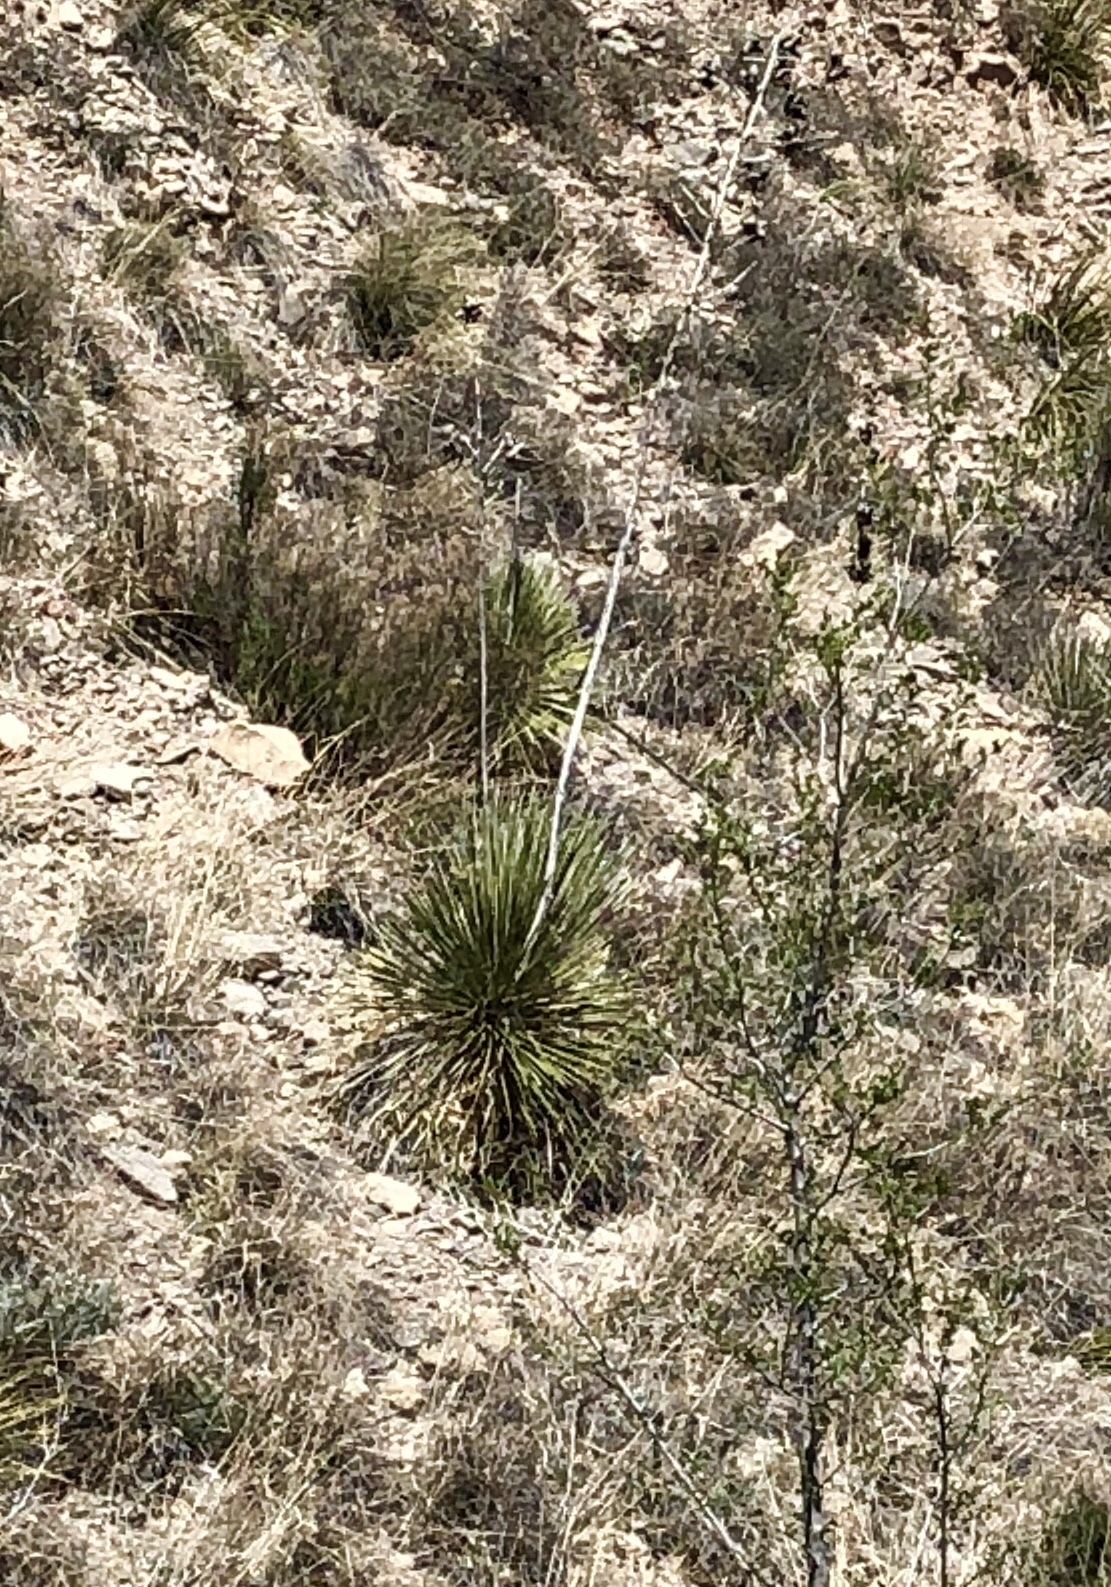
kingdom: Plantae
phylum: Tracheophyta
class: Liliopsida
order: Asparagales
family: Asparagaceae
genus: Yucca
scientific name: Yucca elata
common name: Palmella
